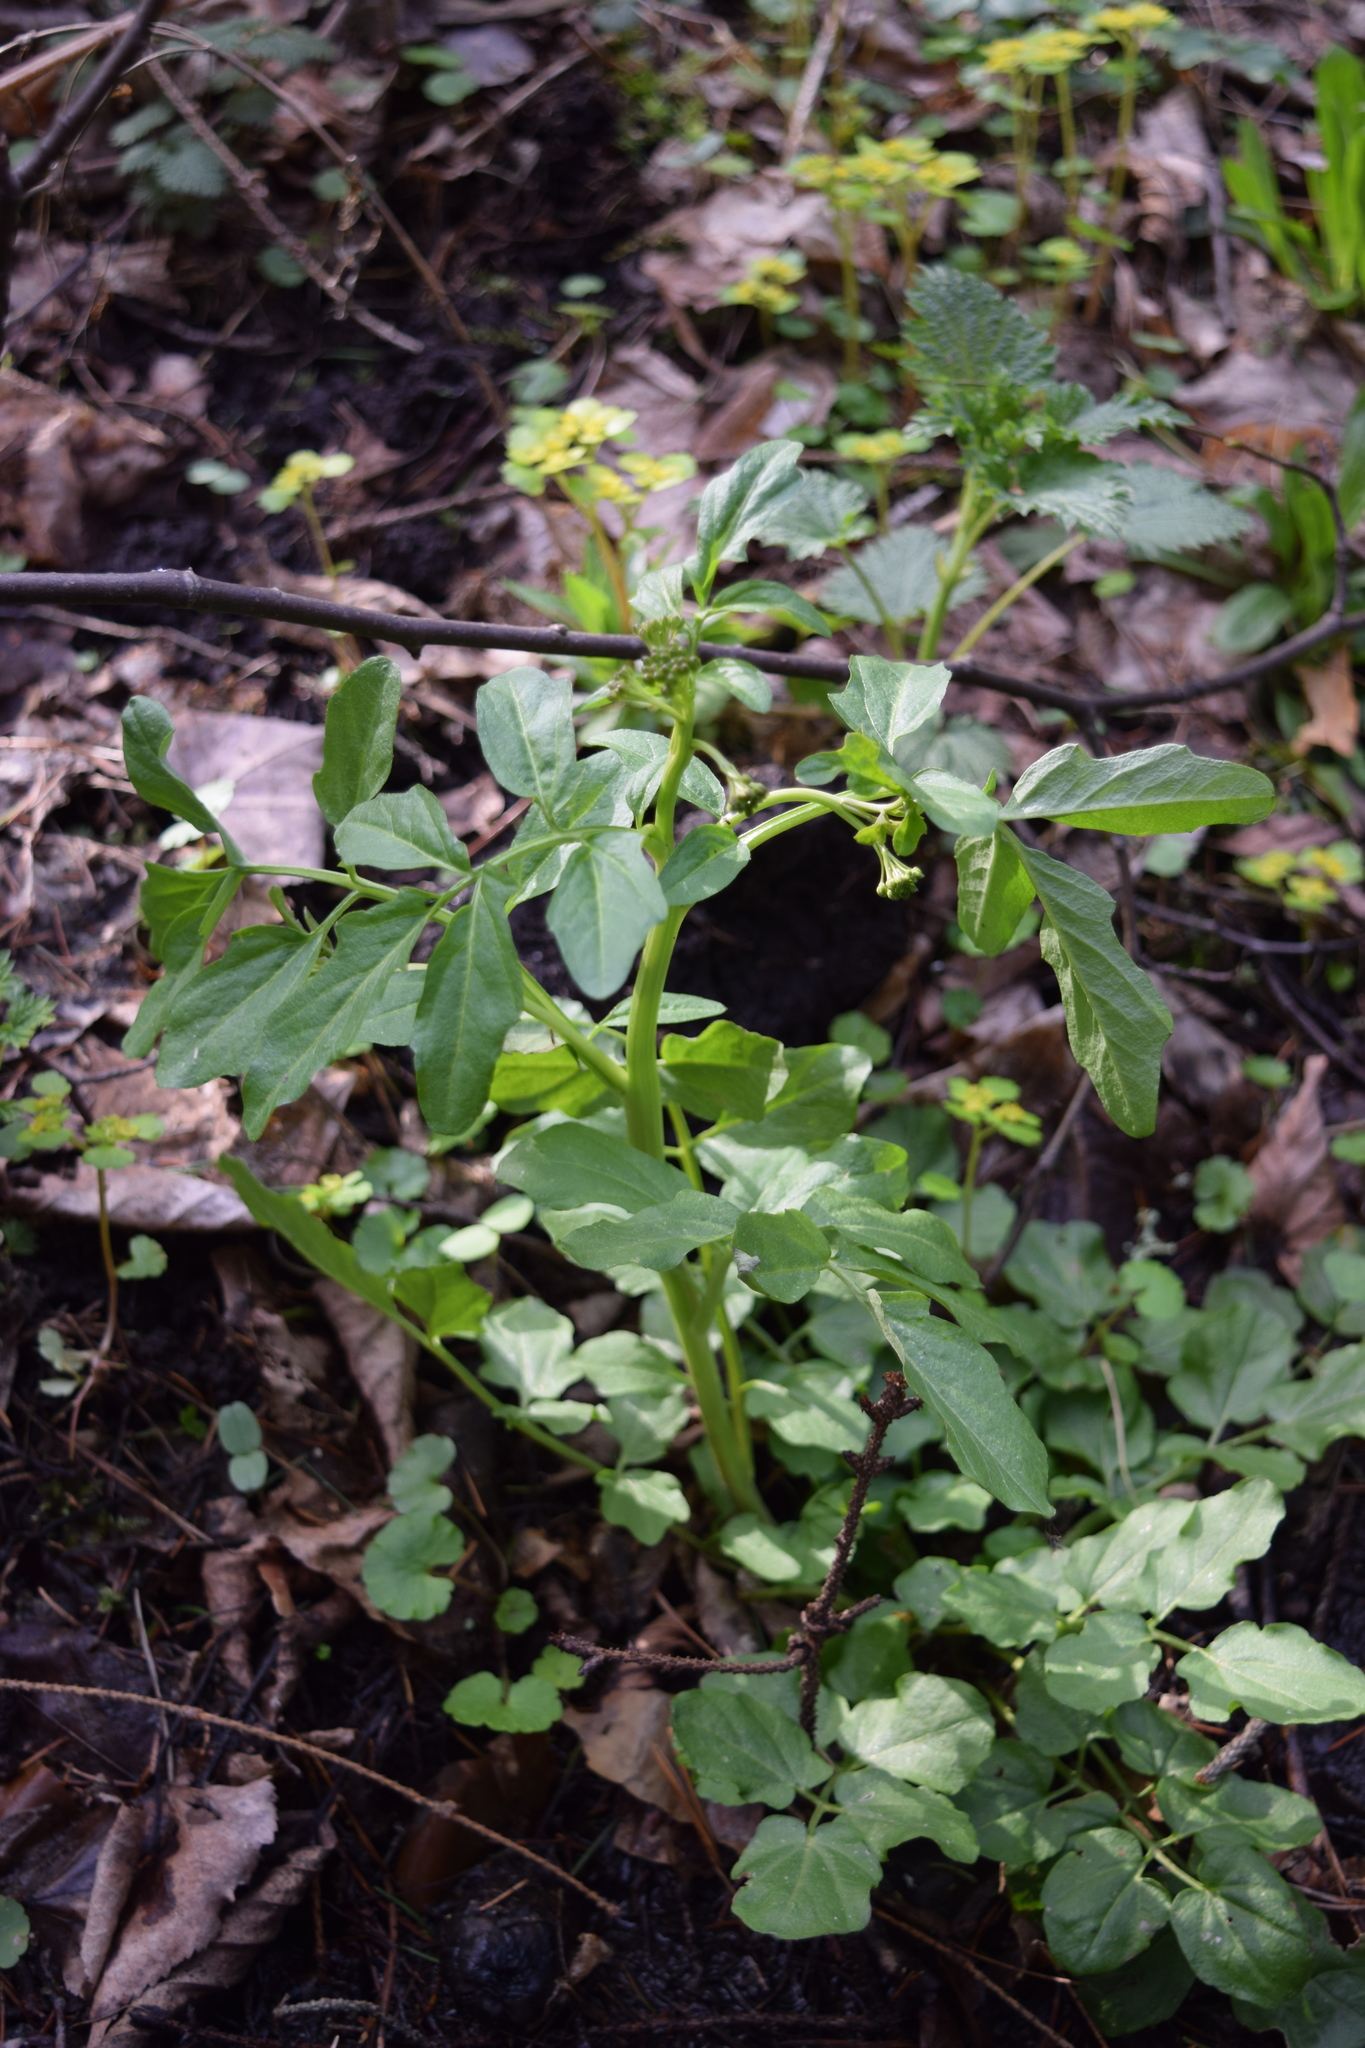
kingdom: Plantae
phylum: Tracheophyta
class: Magnoliopsida
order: Brassicales
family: Brassicaceae
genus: Cardamine
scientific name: Cardamine amara
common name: Large bitter-cress
